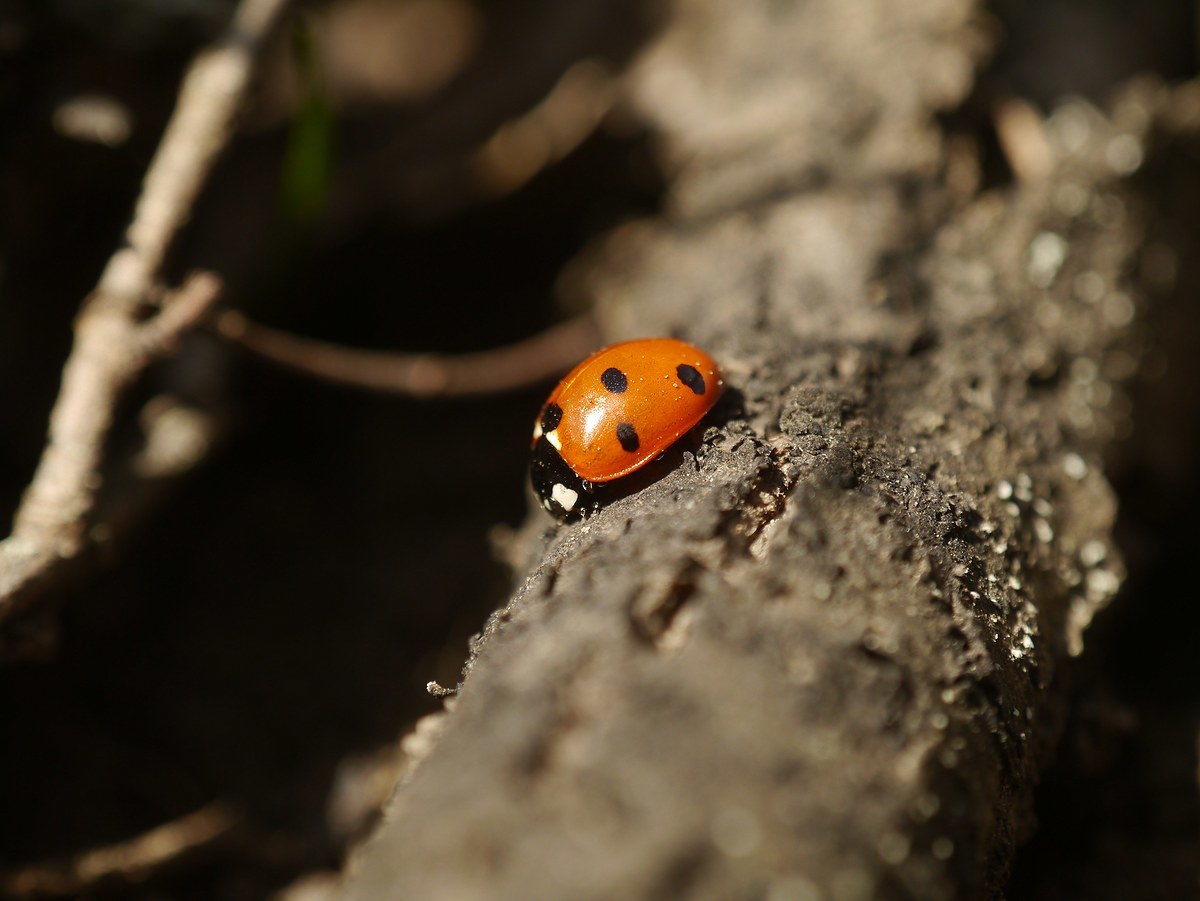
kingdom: Animalia
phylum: Arthropoda
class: Insecta
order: Coleoptera
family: Coccinellidae
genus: Coccinella
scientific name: Coccinella septempunctata
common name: Sevenspotted lady beetle
